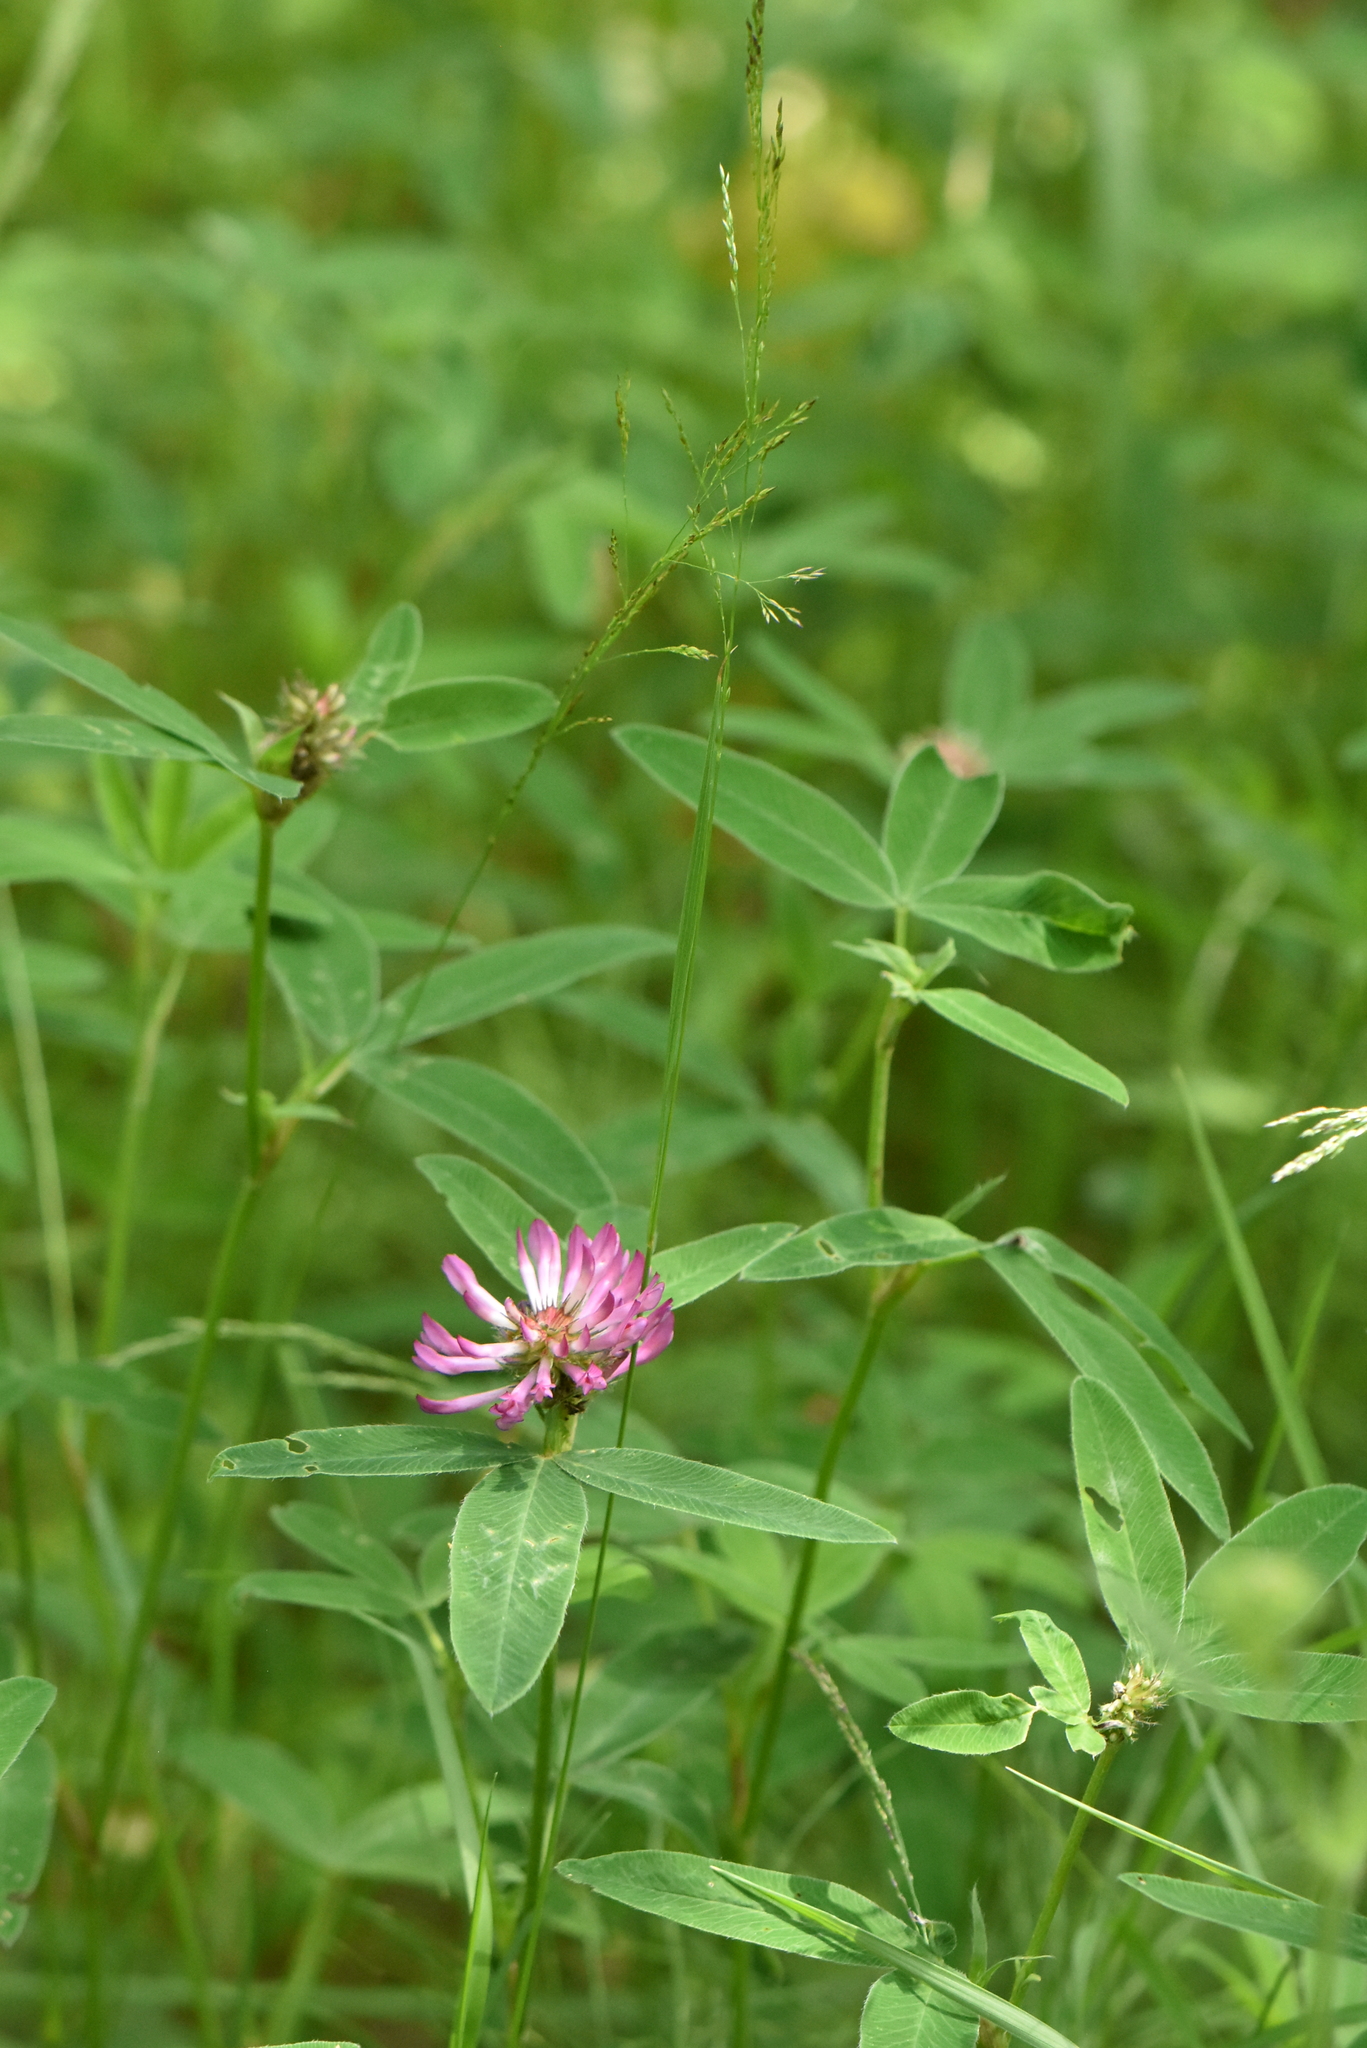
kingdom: Plantae
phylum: Tracheophyta
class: Magnoliopsida
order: Fabales
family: Fabaceae
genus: Trifolium
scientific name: Trifolium medium
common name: Zigzag clover
